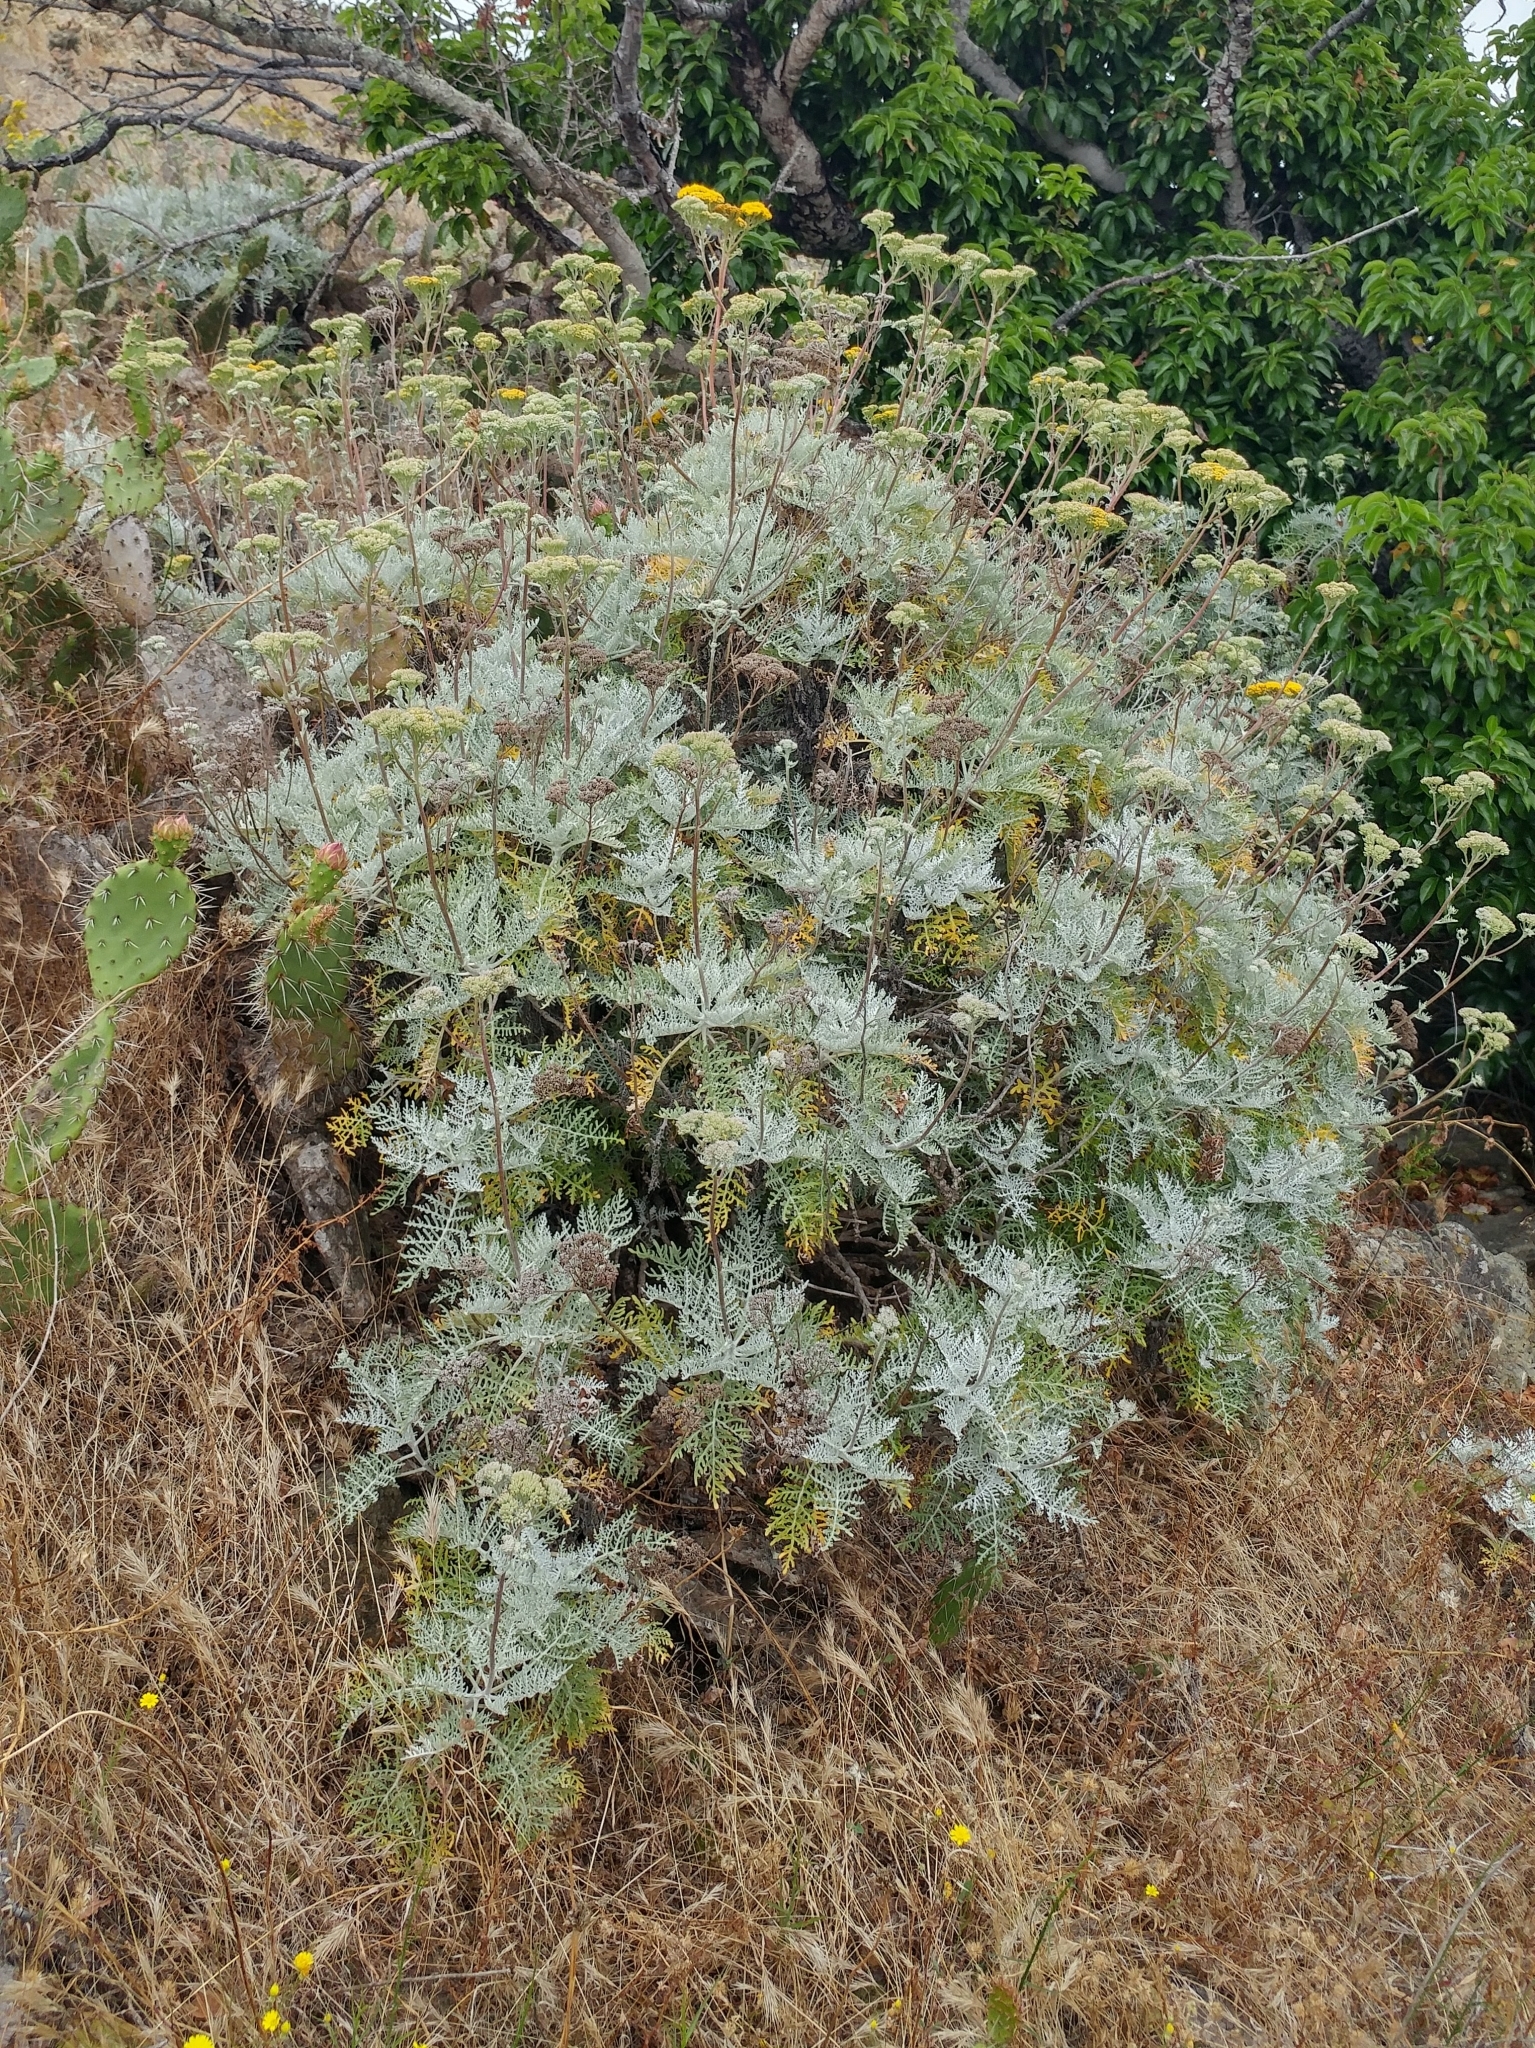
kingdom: Plantae
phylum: Tracheophyta
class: Magnoliopsida
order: Asterales
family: Asteraceae
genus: Constancea
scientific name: Constancea nevinii
